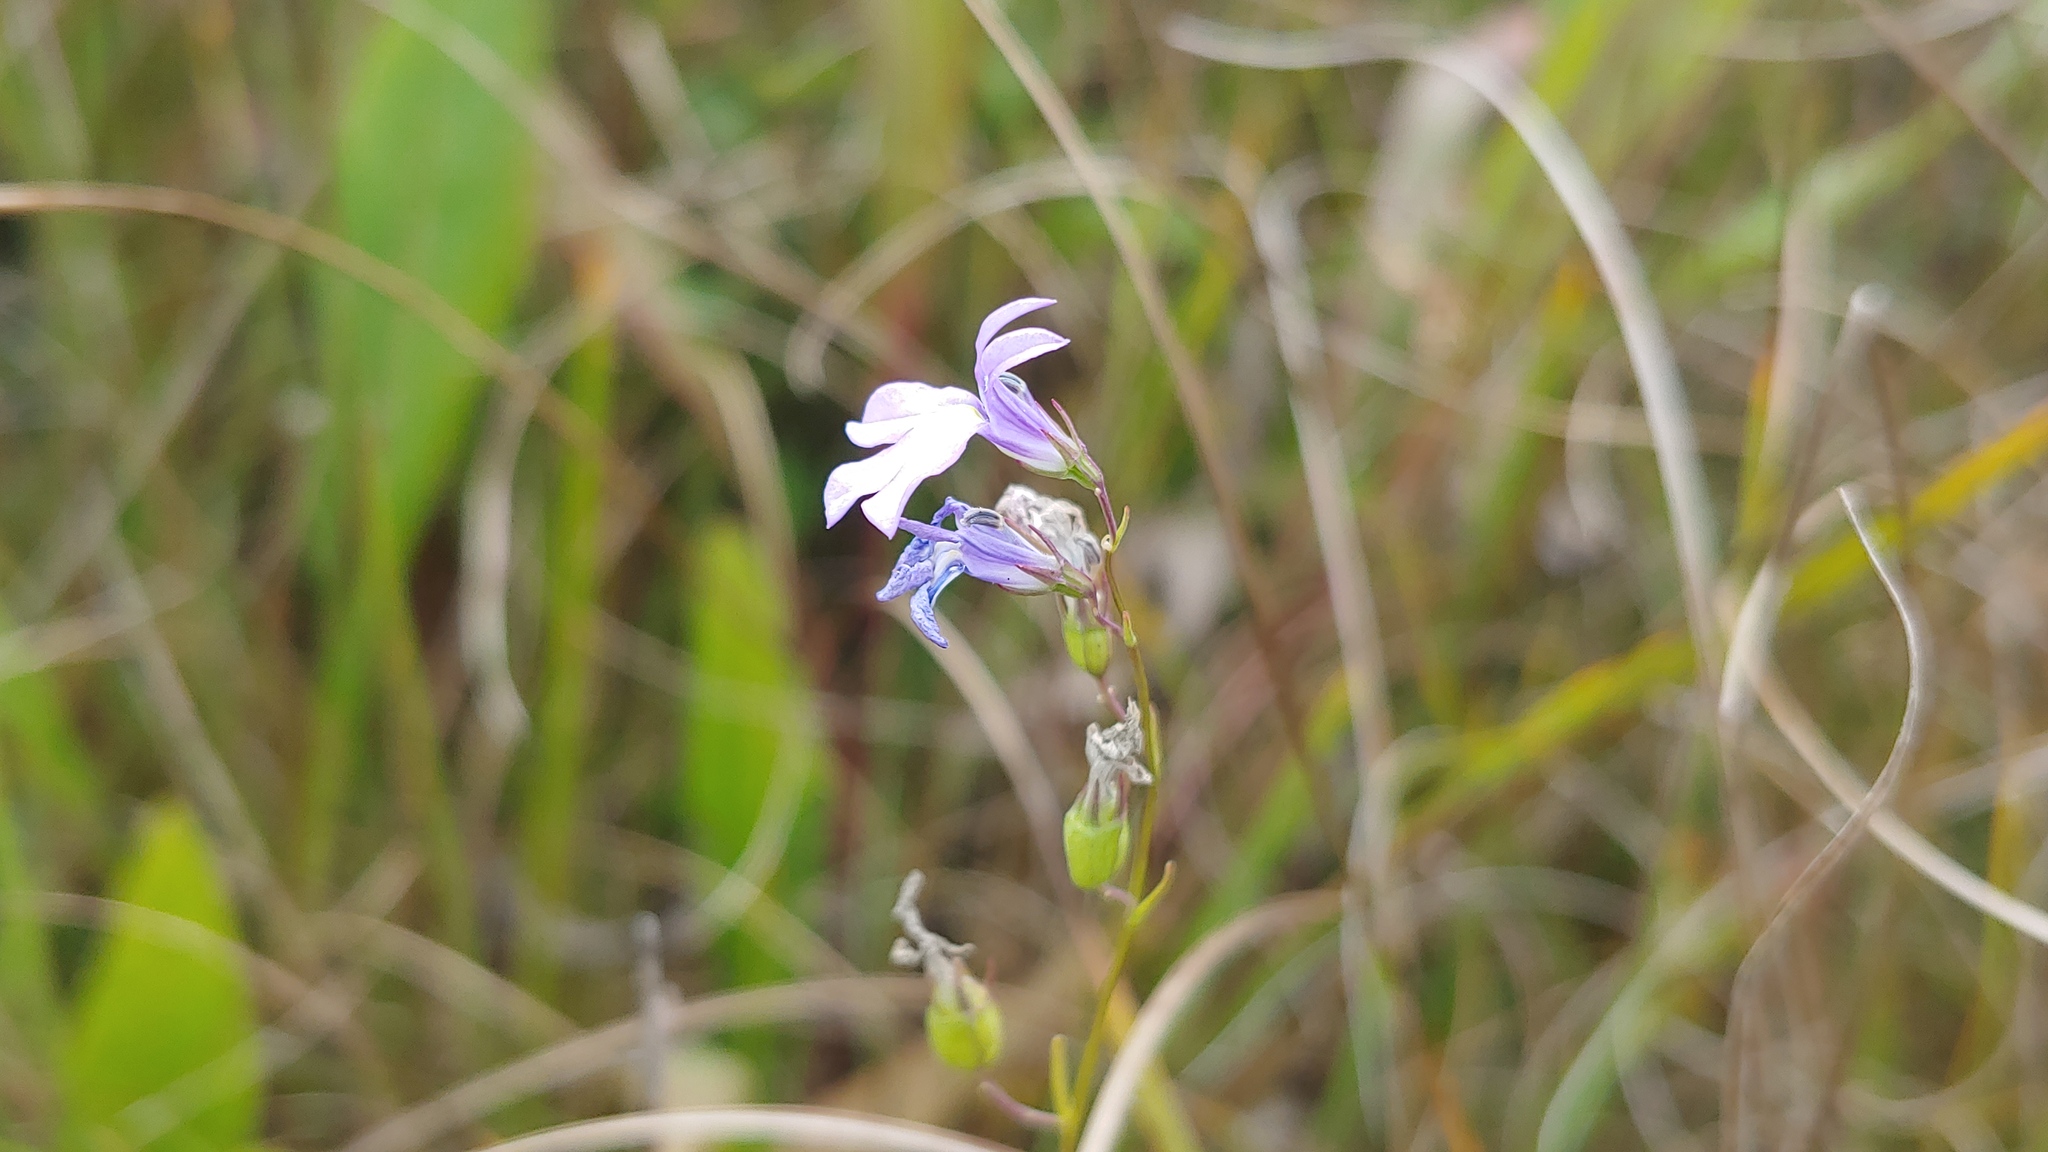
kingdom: Plantae
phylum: Tracheophyta
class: Magnoliopsida
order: Asterales
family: Campanulaceae
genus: Lobelia
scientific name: Lobelia kalmii
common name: Kalm's lobelia
